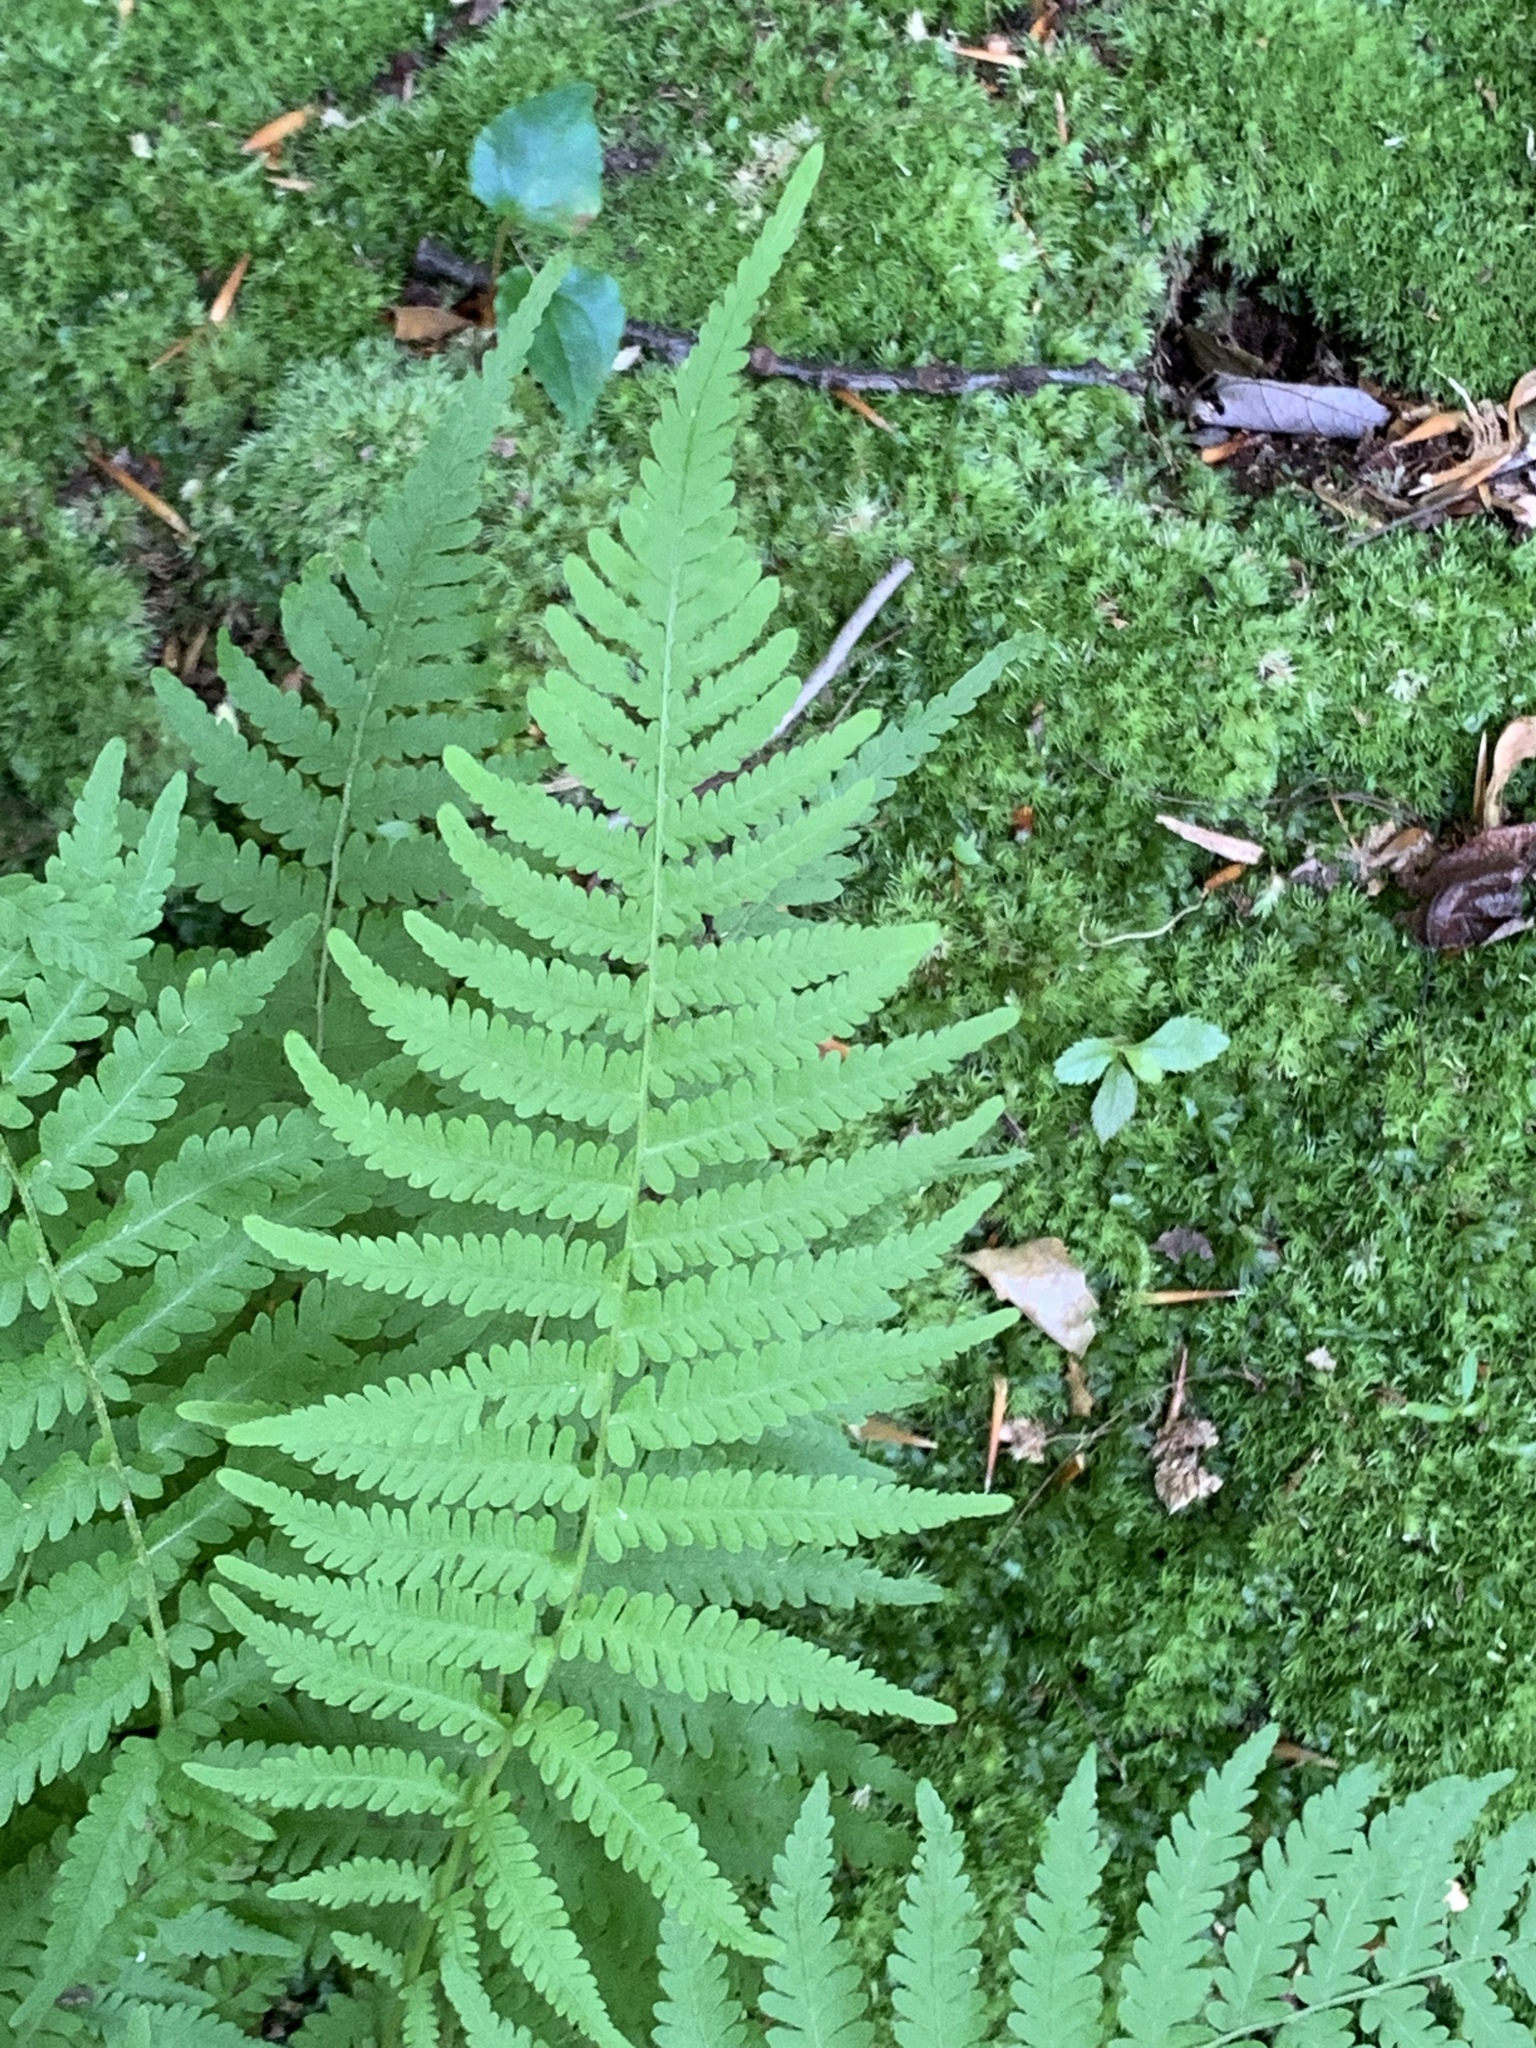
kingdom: Plantae
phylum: Tracheophyta
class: Polypodiopsida
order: Polypodiales
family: Thelypteridaceae
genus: Amauropelta
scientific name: Amauropelta noveboracensis
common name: New york fern
